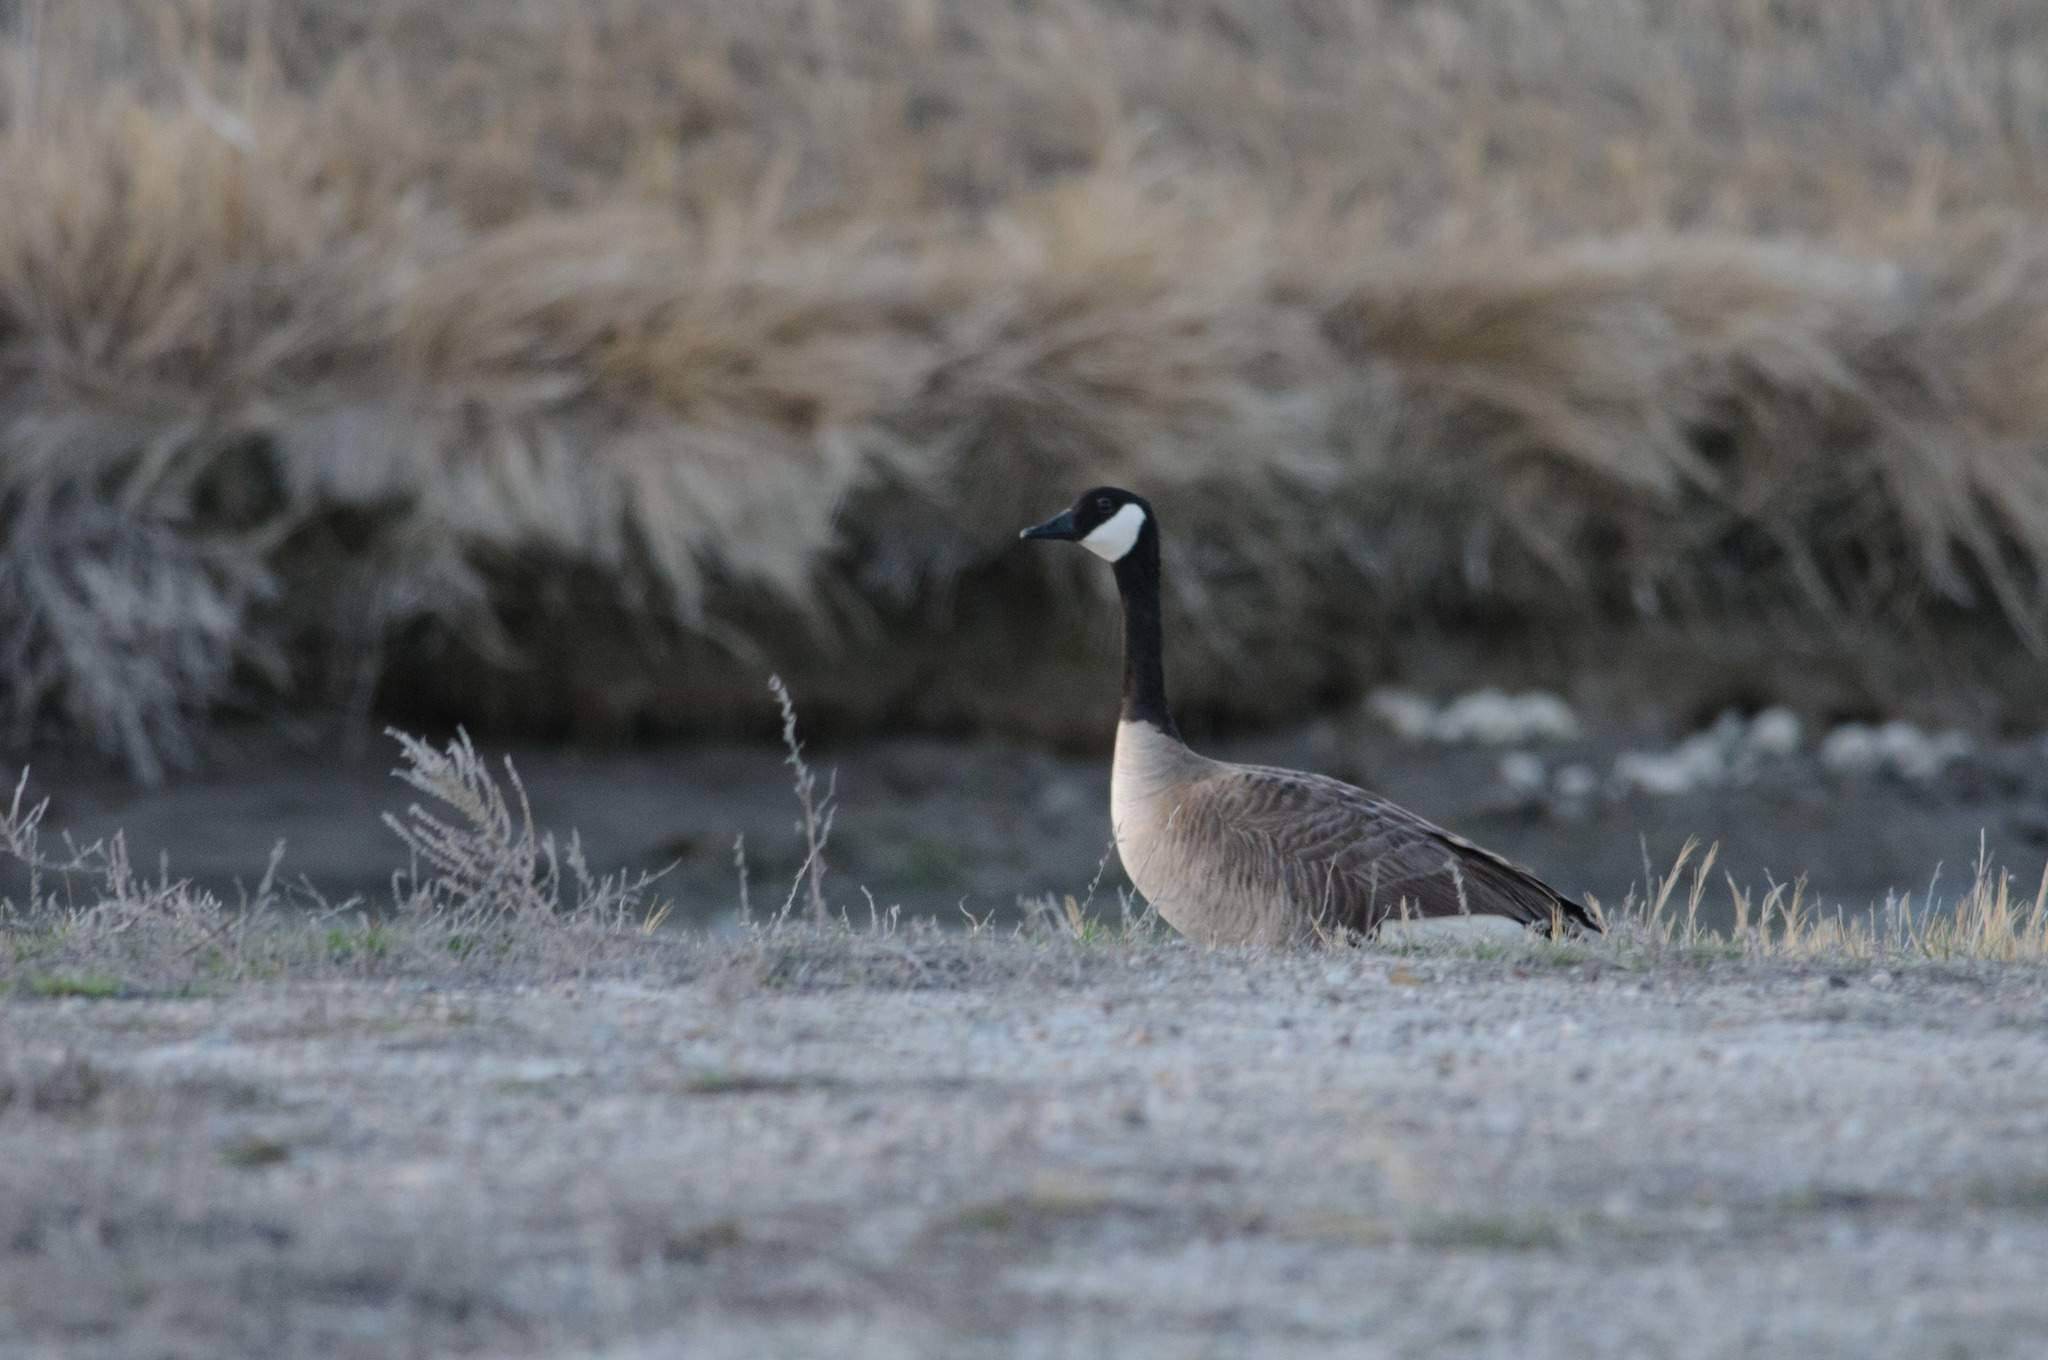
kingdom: Animalia
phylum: Chordata
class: Aves
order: Anseriformes
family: Anatidae
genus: Branta
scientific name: Branta canadensis
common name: Canada goose
